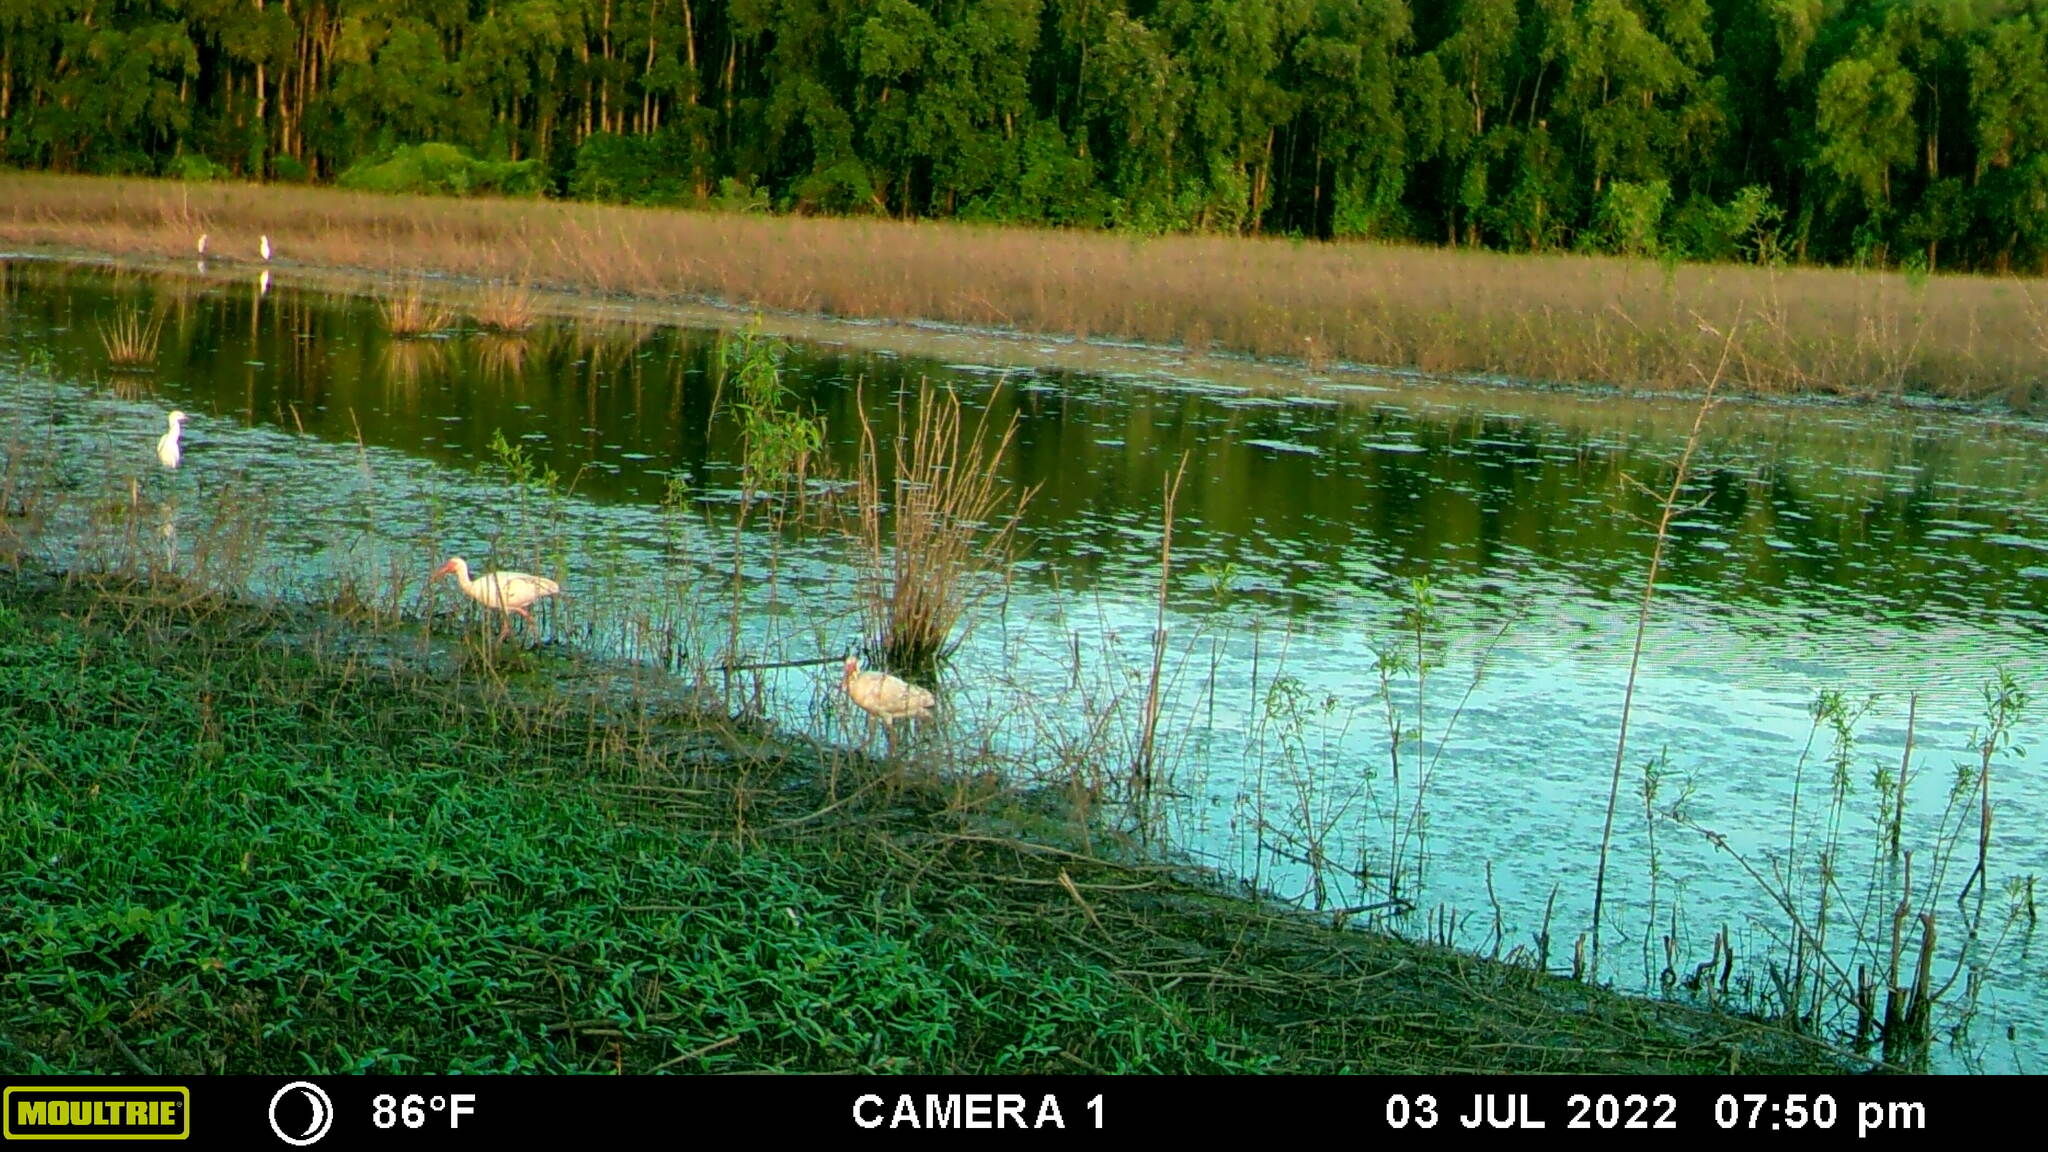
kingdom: Animalia
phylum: Chordata
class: Aves
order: Pelecaniformes
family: Threskiornithidae
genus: Eudocimus
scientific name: Eudocimus albus
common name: White ibis
